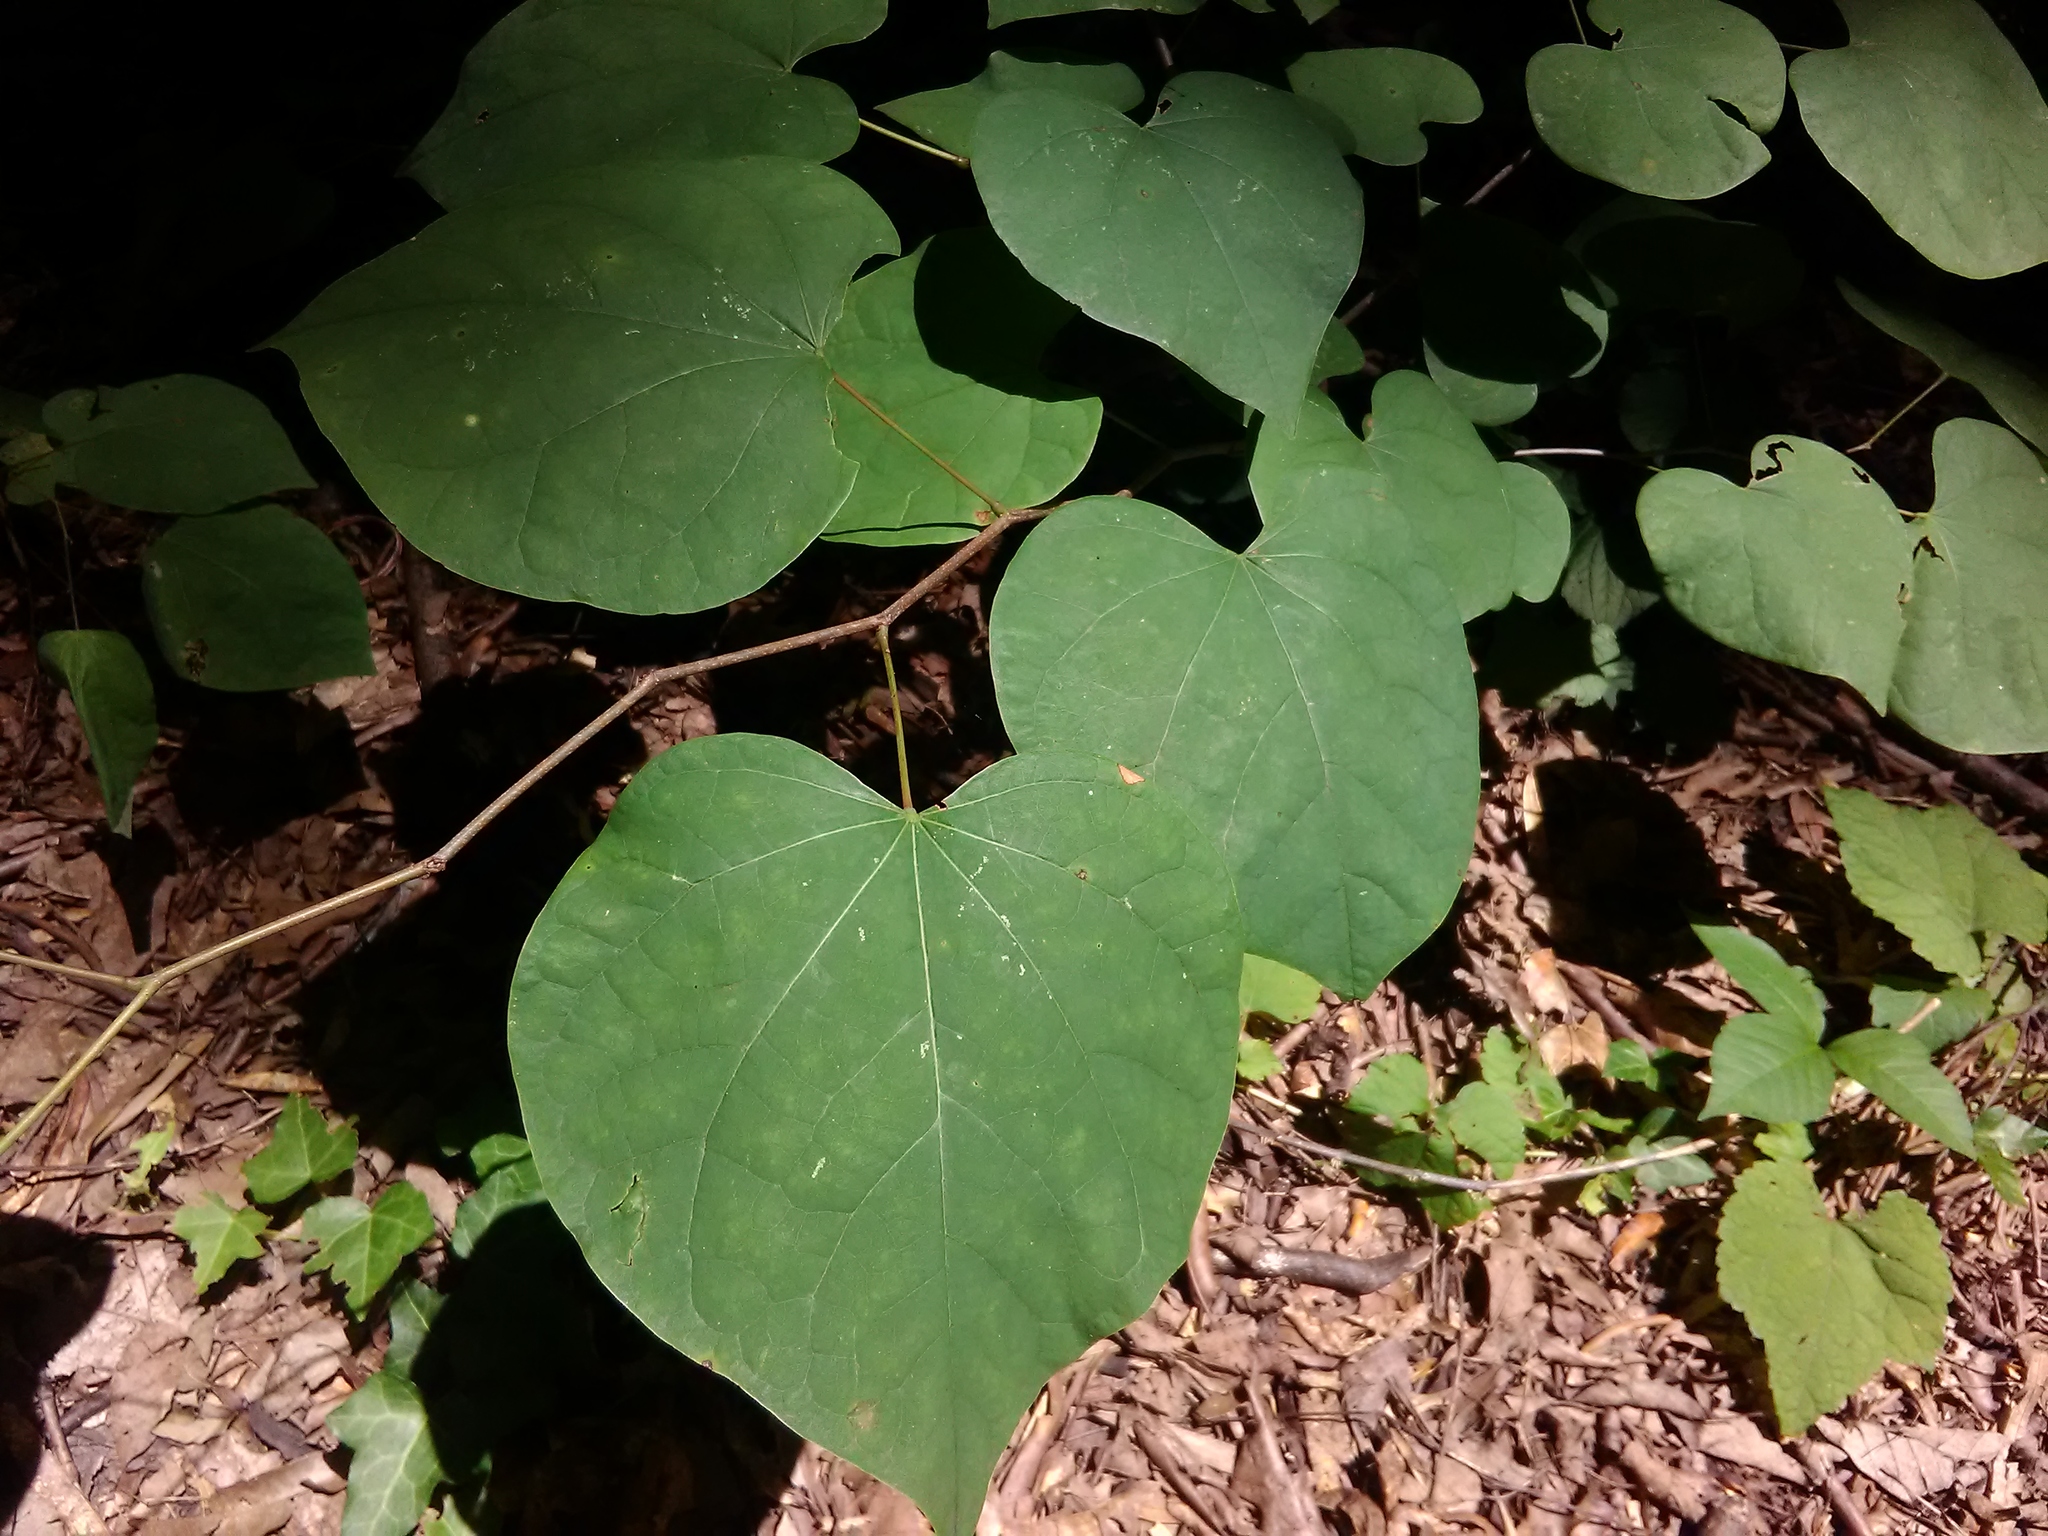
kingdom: Plantae
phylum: Tracheophyta
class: Magnoliopsida
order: Fabales
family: Fabaceae
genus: Cercis
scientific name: Cercis canadensis
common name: Eastern redbud
